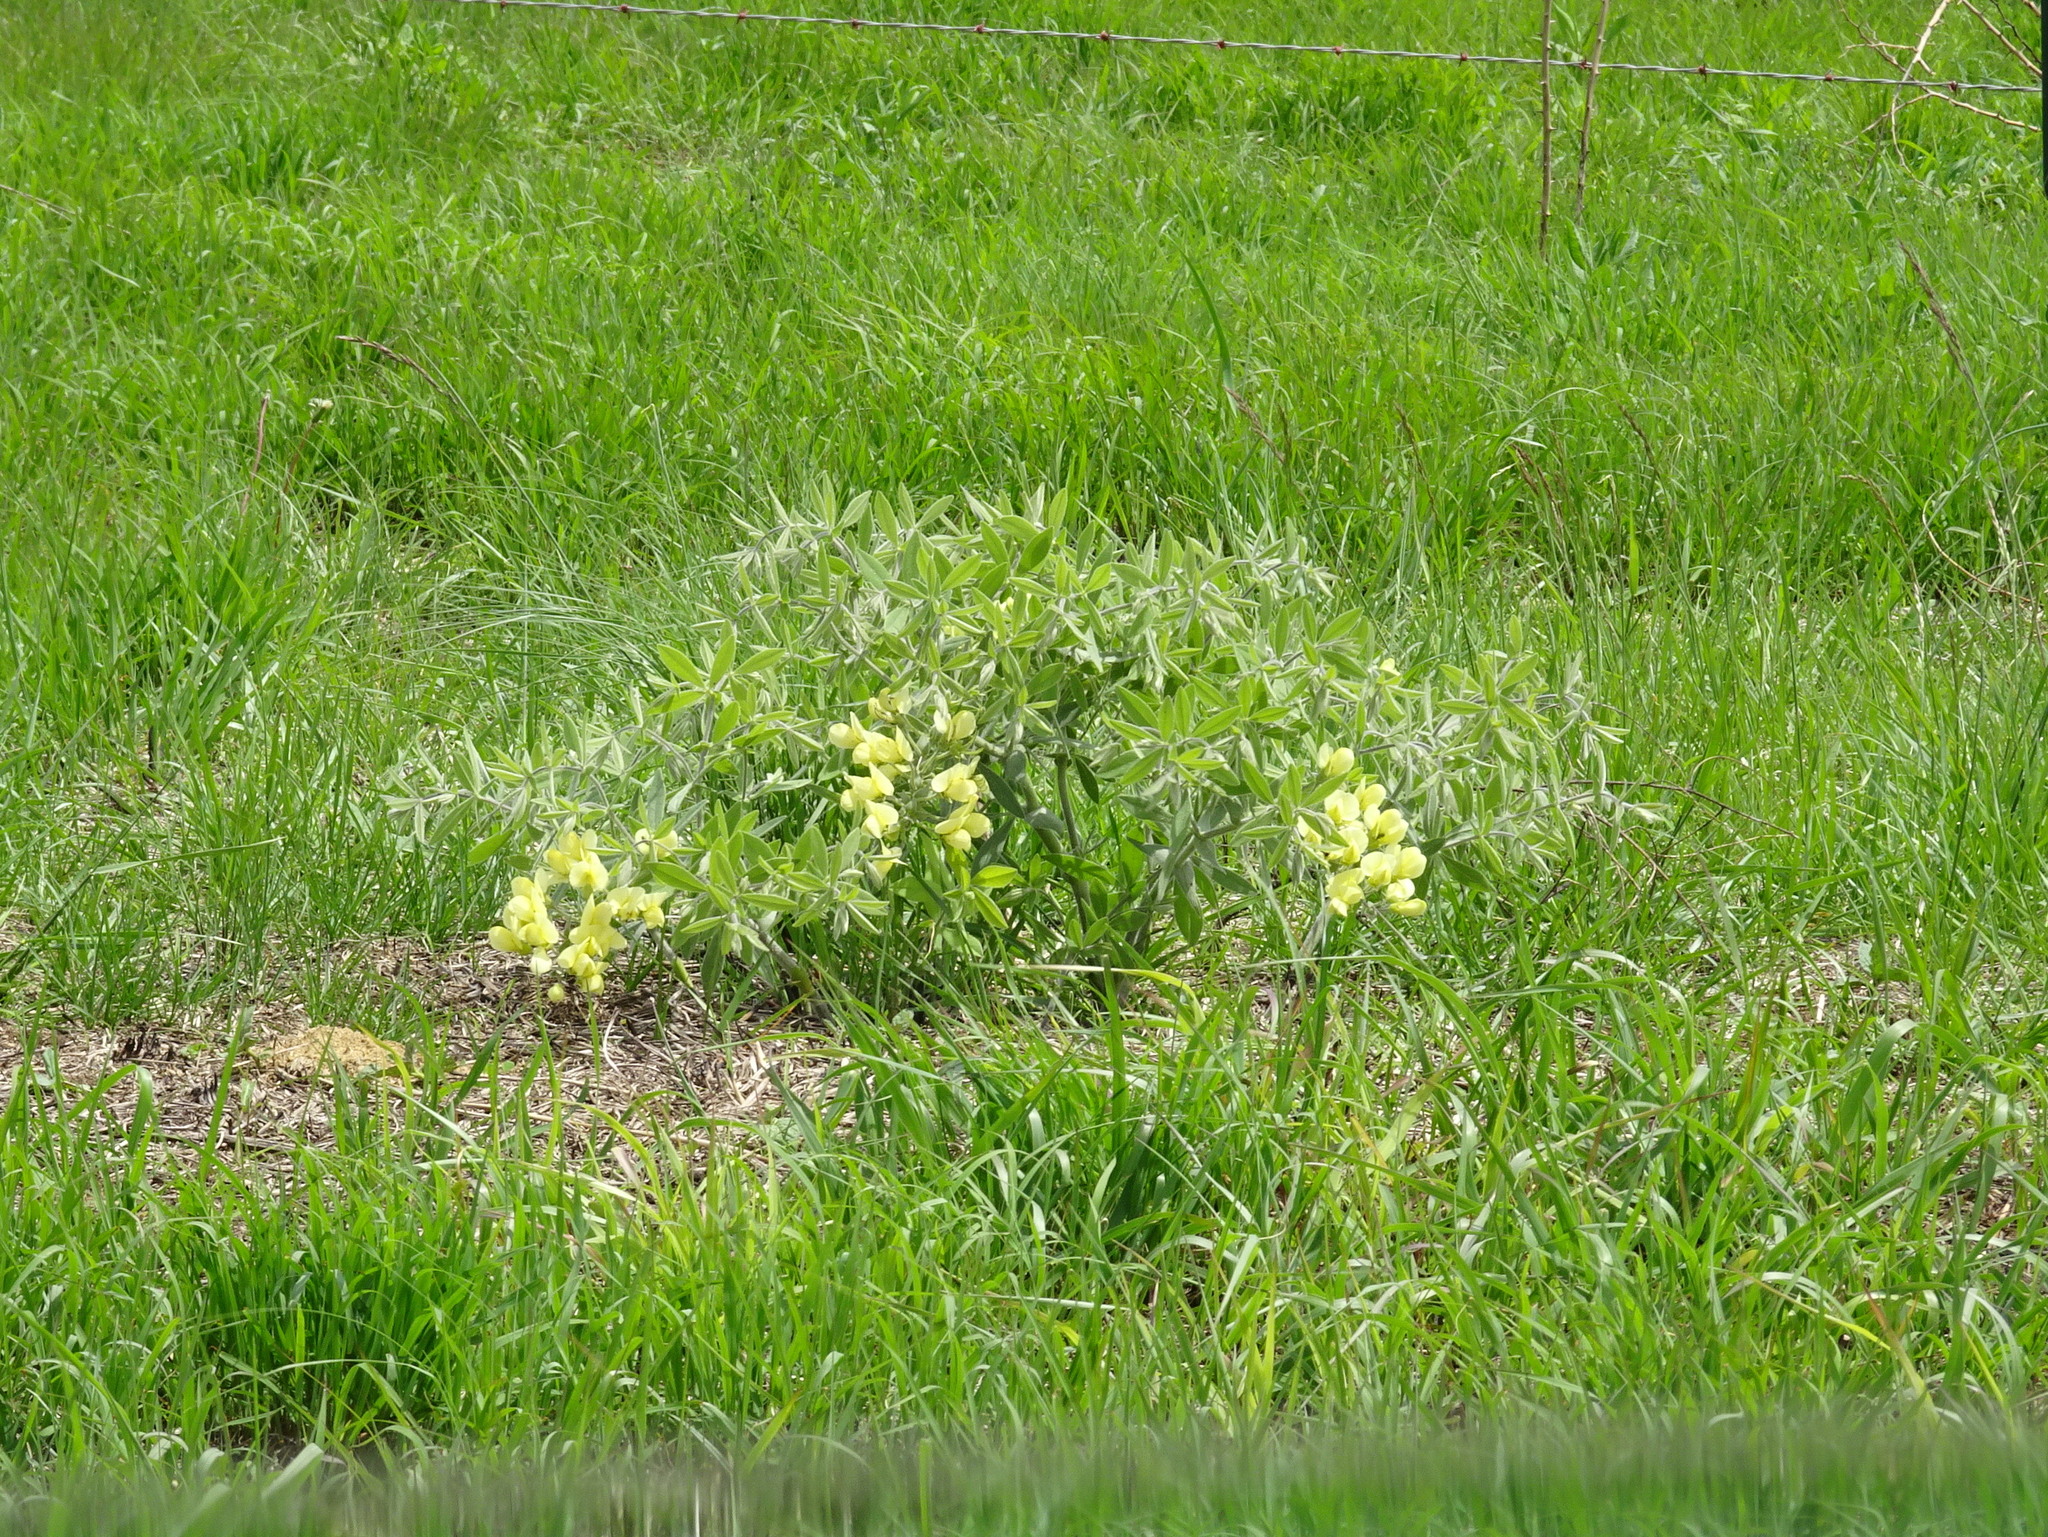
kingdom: Plantae
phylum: Tracheophyta
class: Magnoliopsida
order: Fabales
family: Fabaceae
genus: Baptisia
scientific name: Baptisia bracteata
